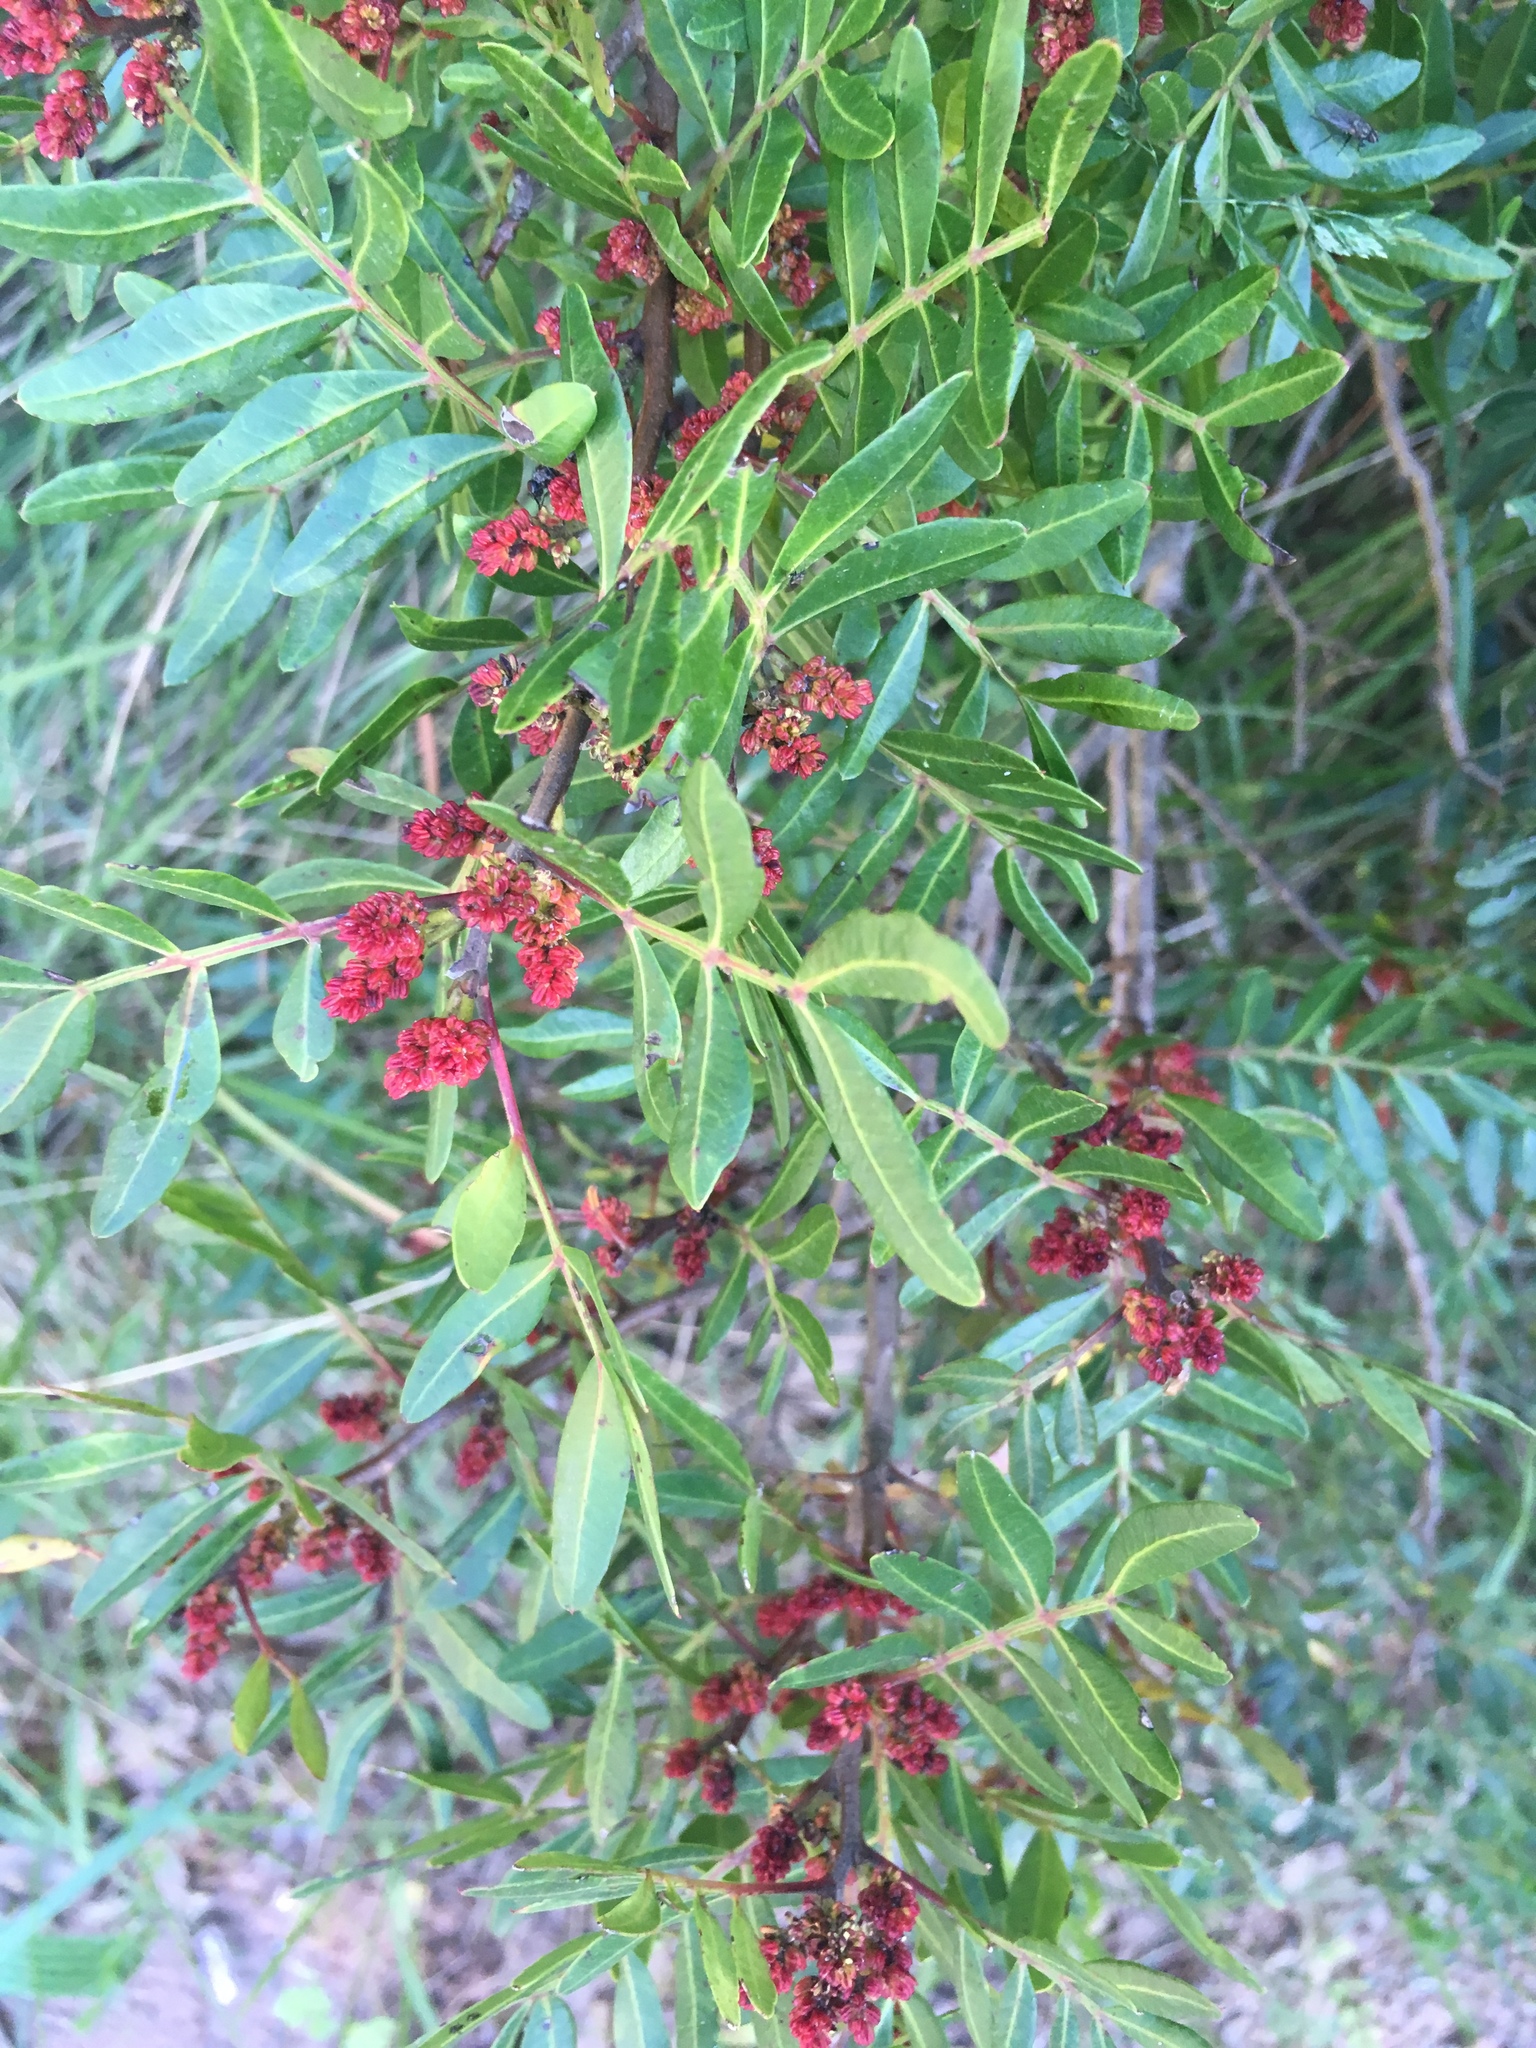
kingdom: Plantae
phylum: Tracheophyta
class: Magnoliopsida
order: Sapindales
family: Anacardiaceae
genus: Pistacia
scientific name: Pistacia lentiscus
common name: Lentisk
